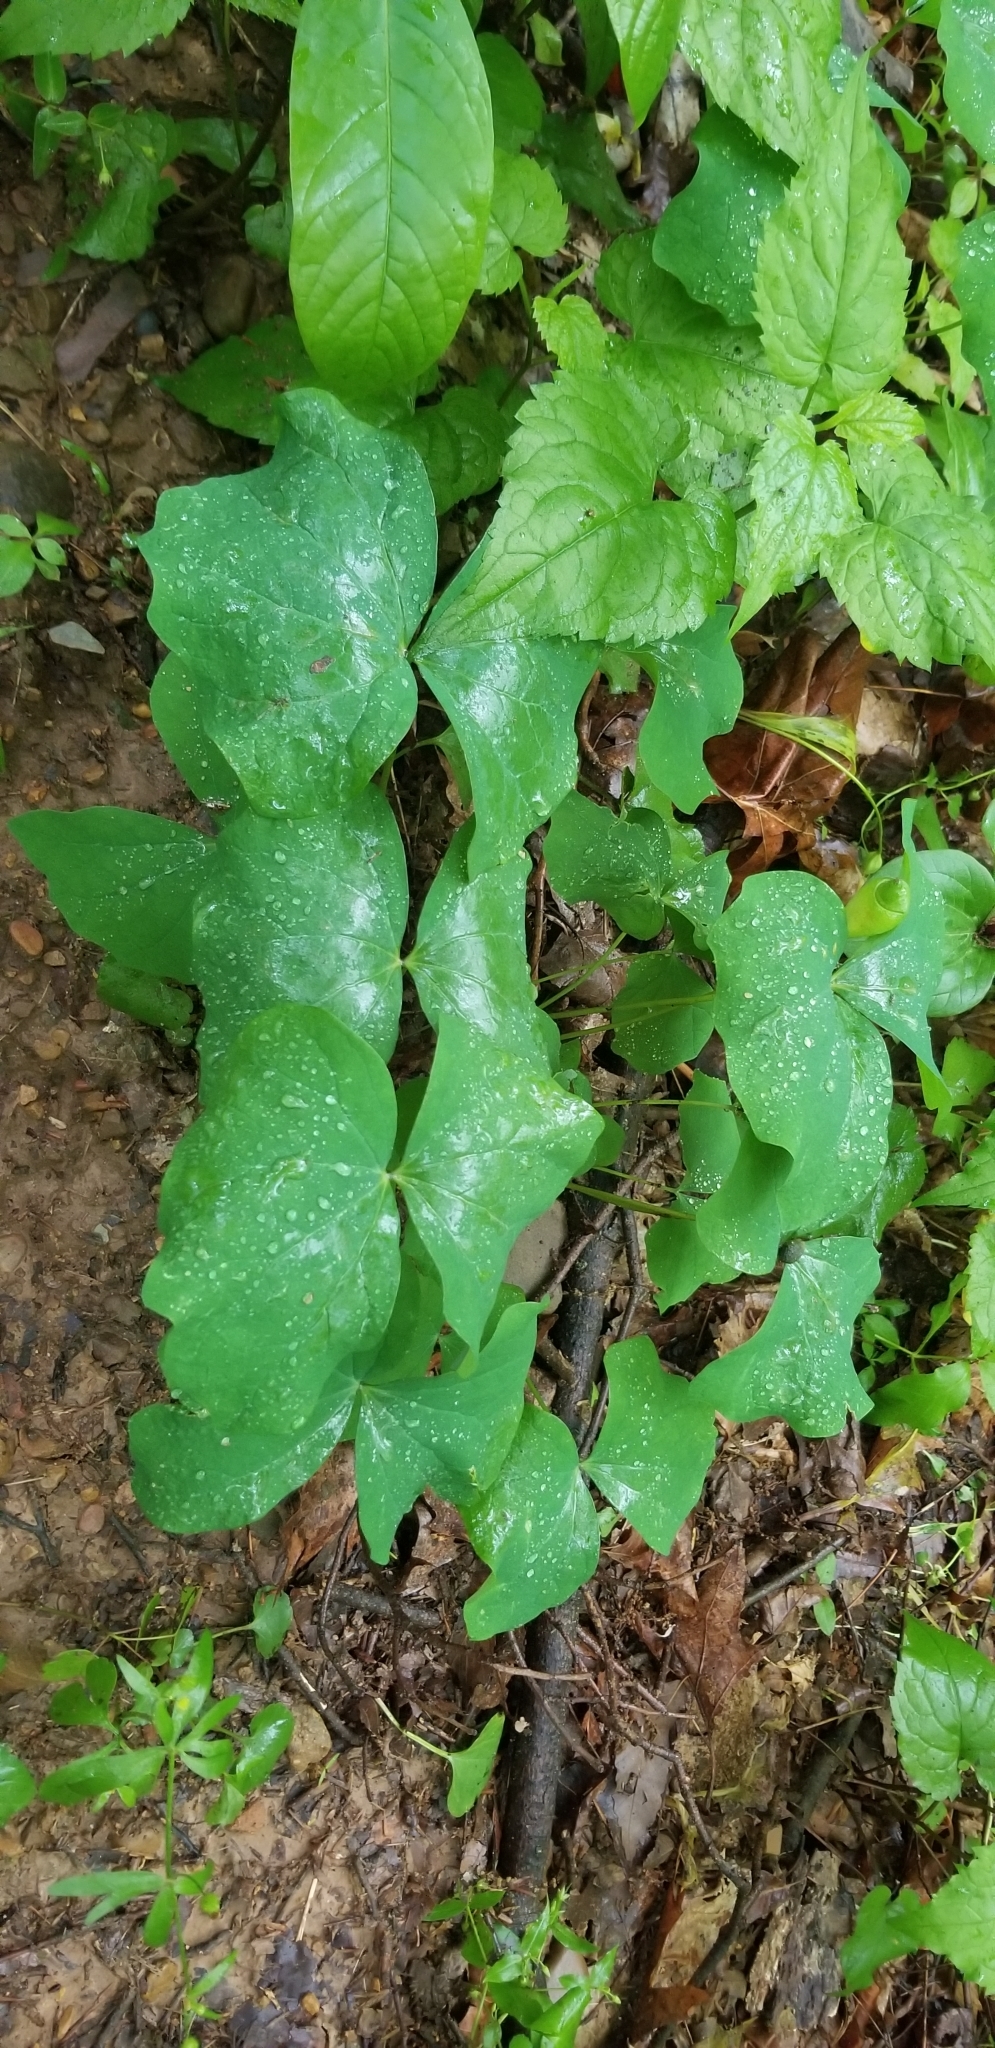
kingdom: Plantae
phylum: Tracheophyta
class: Magnoliopsida
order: Ranunculales
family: Berberidaceae
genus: Jeffersonia
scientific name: Jeffersonia diphylla
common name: Rheumatism-root
